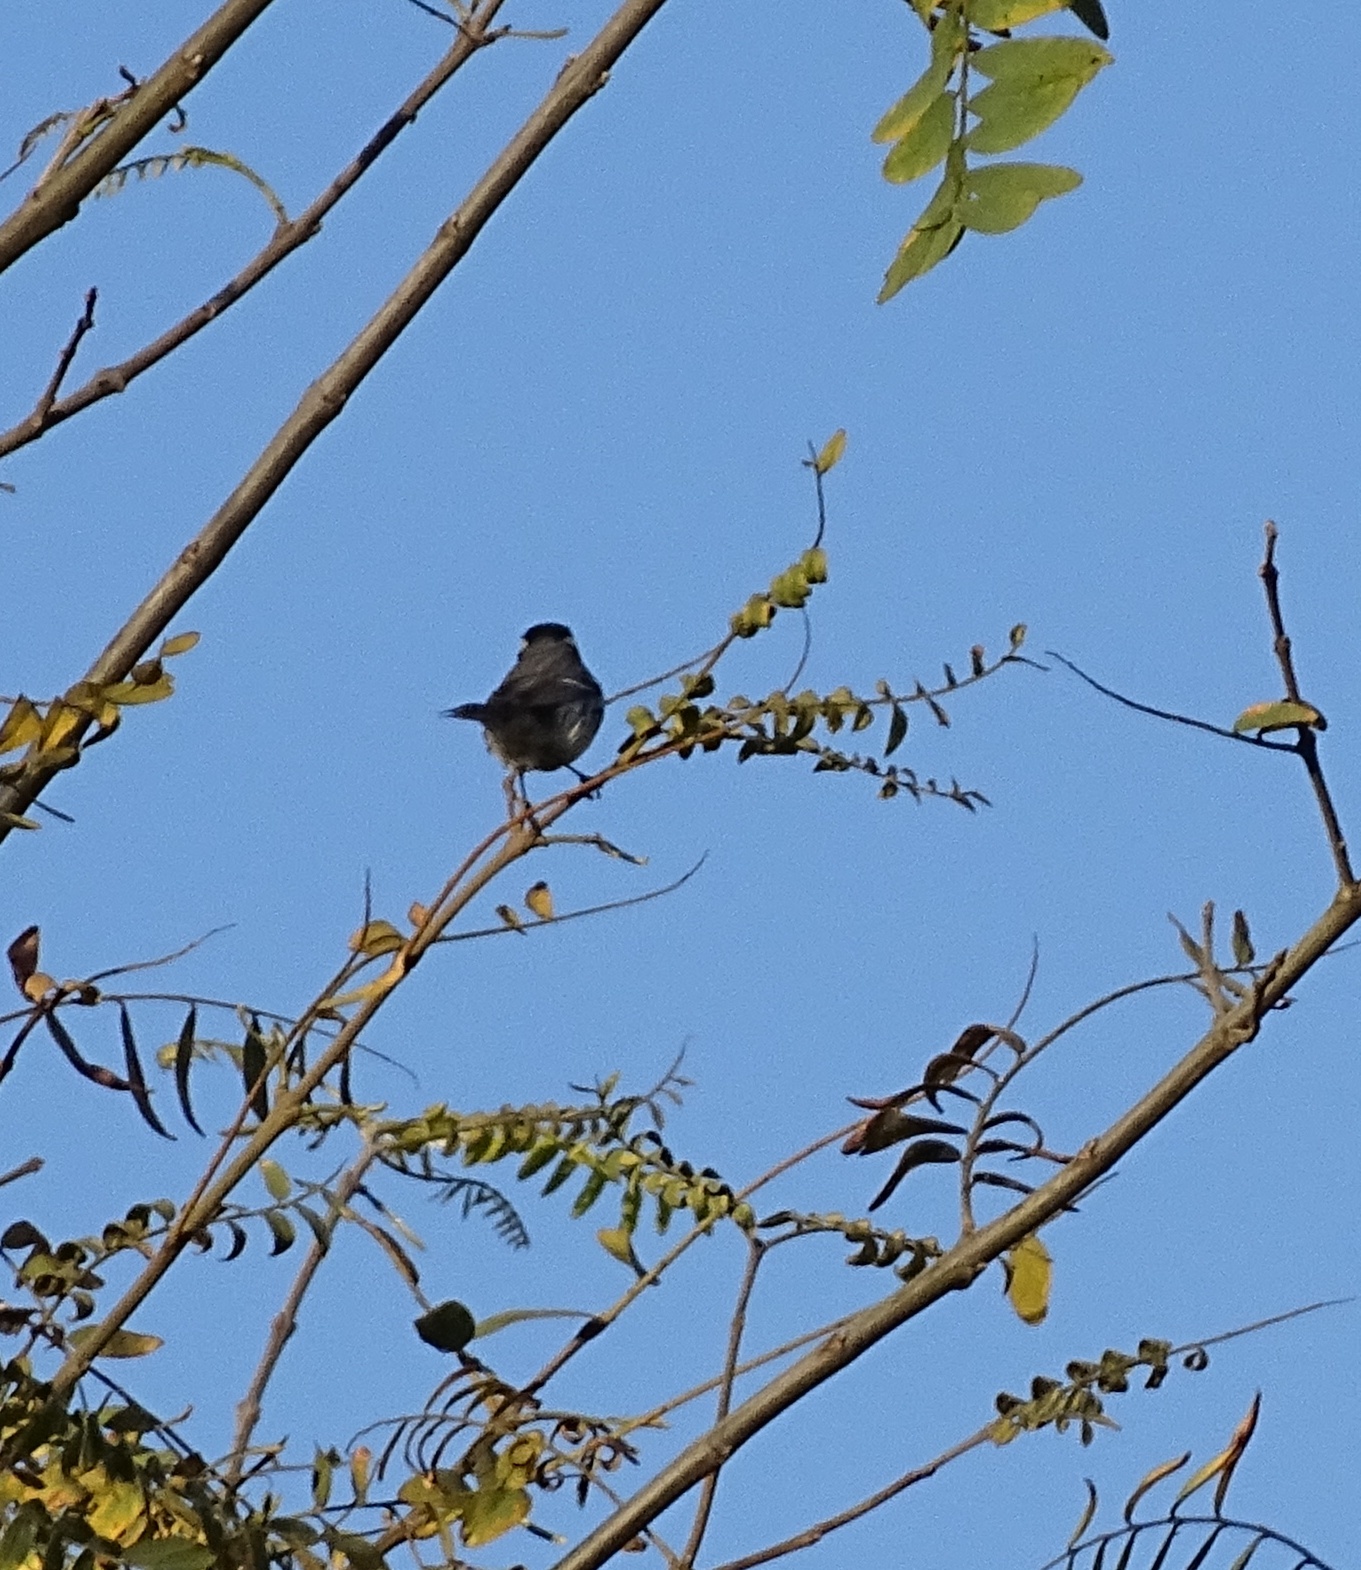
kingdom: Animalia
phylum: Chordata
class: Aves
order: Passeriformes
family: Parulidae
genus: Setophaga
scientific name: Setophaga nigrescens
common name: Black-throated gray warbler
